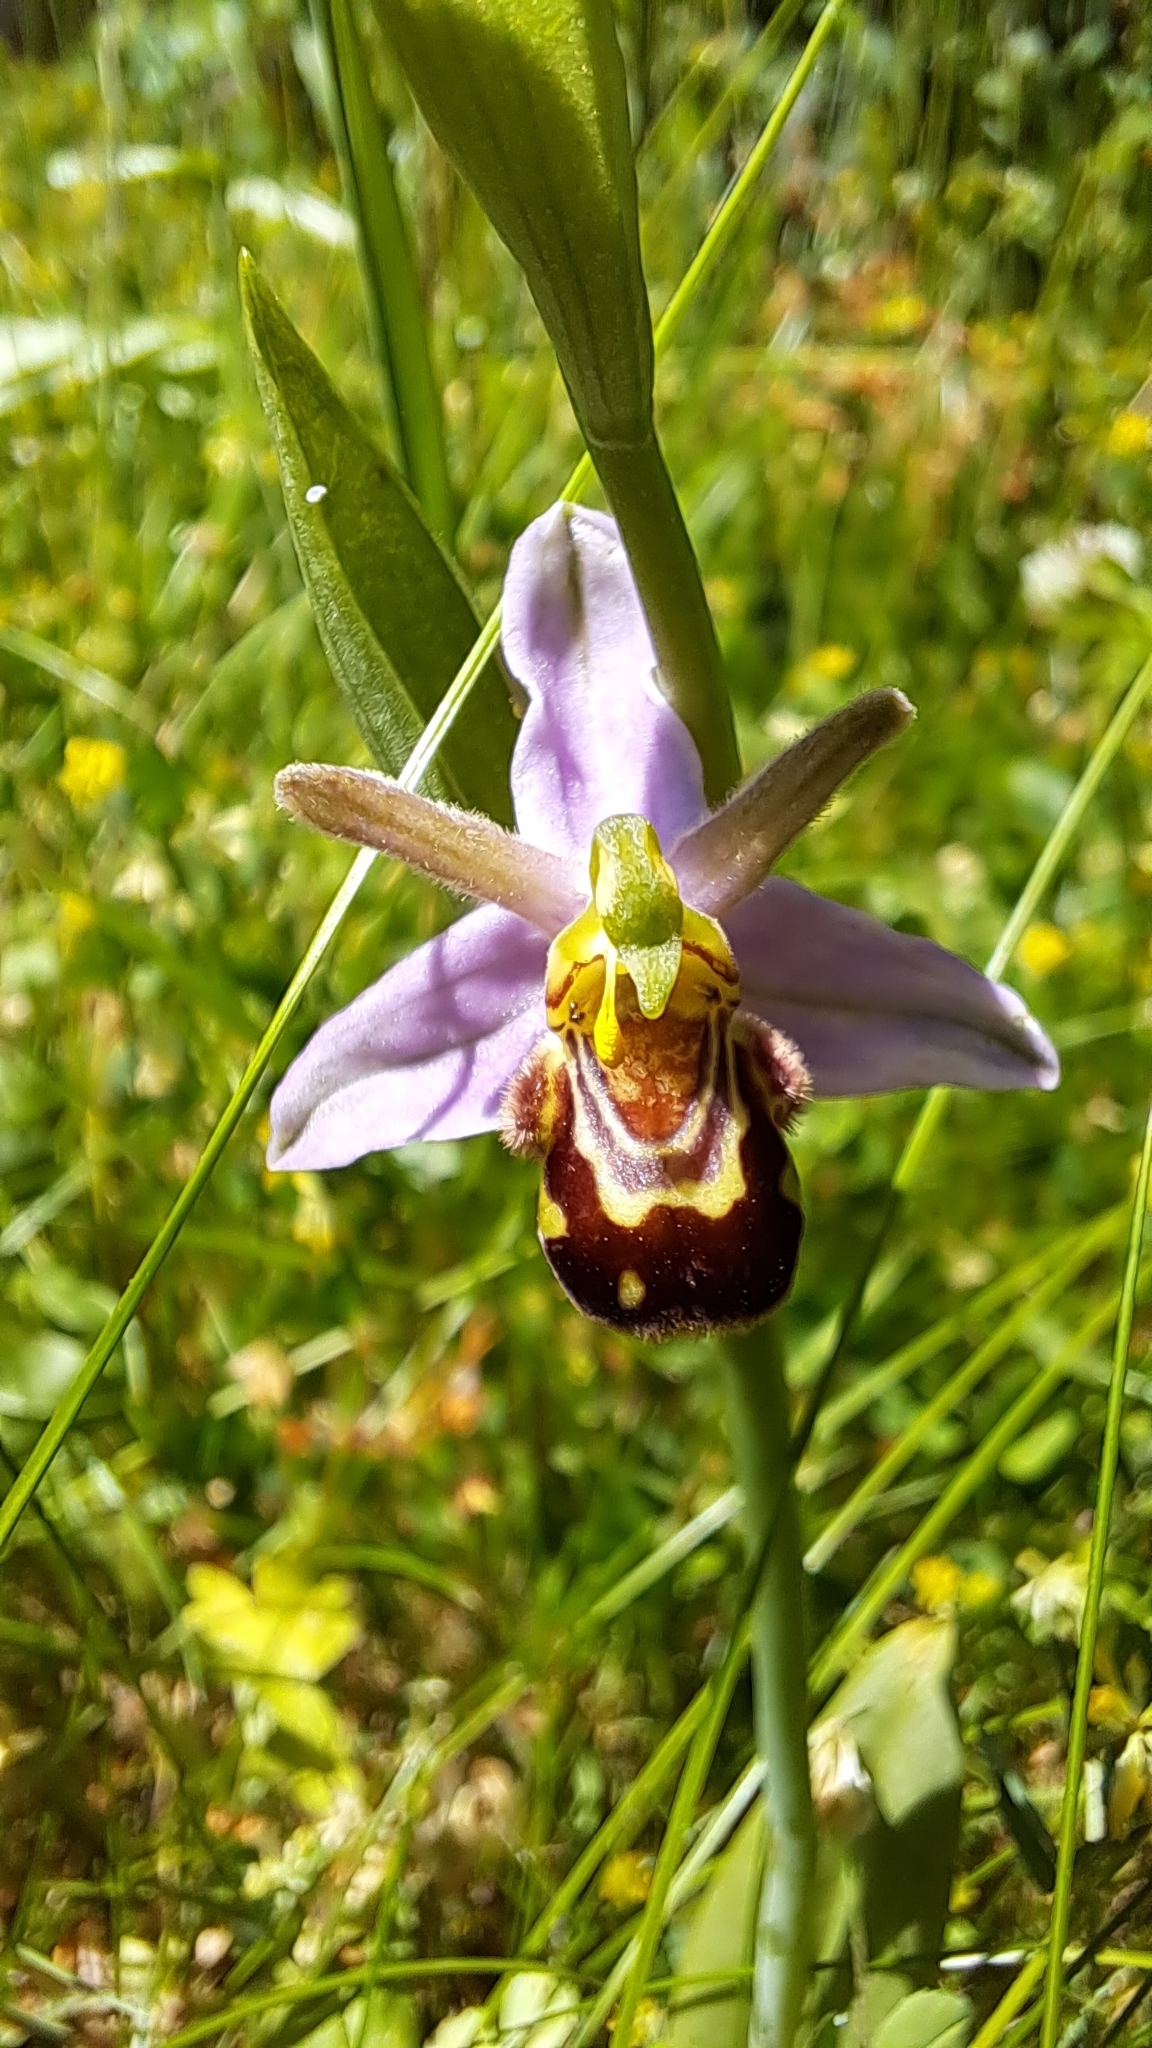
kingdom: Plantae
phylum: Tracheophyta
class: Liliopsida
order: Asparagales
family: Orchidaceae
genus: Ophrys
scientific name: Ophrys apifera
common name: Bee orchid
